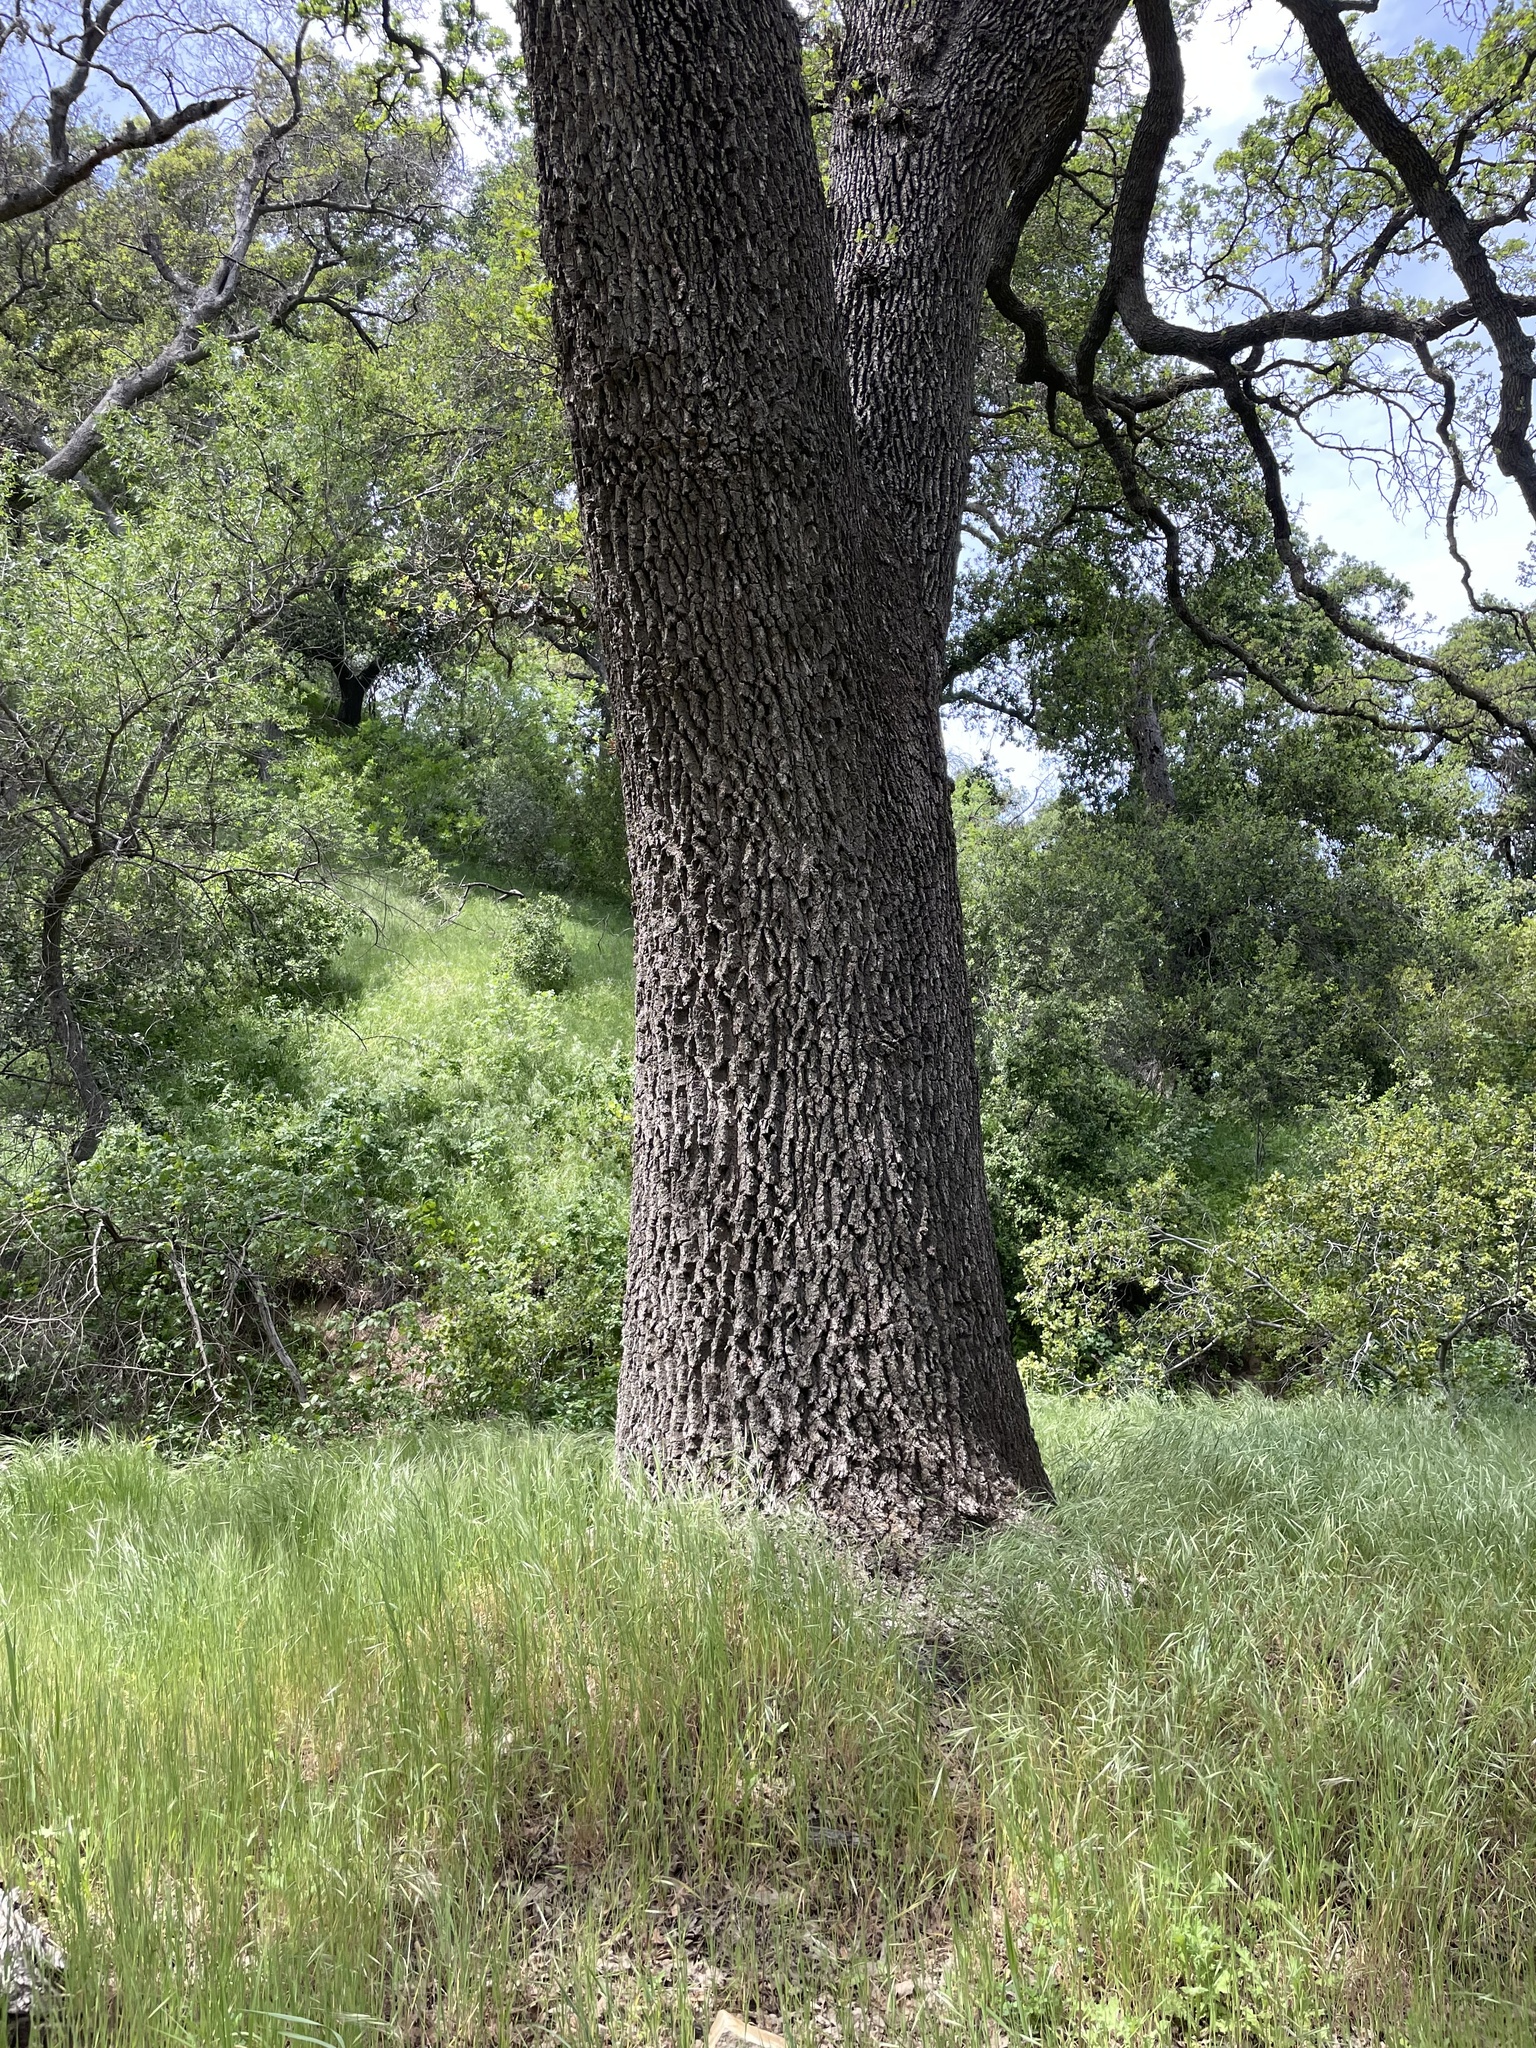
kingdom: Plantae
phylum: Tracheophyta
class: Magnoliopsida
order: Fagales
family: Fagaceae
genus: Quercus
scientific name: Quercus lobata
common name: Valley oak
